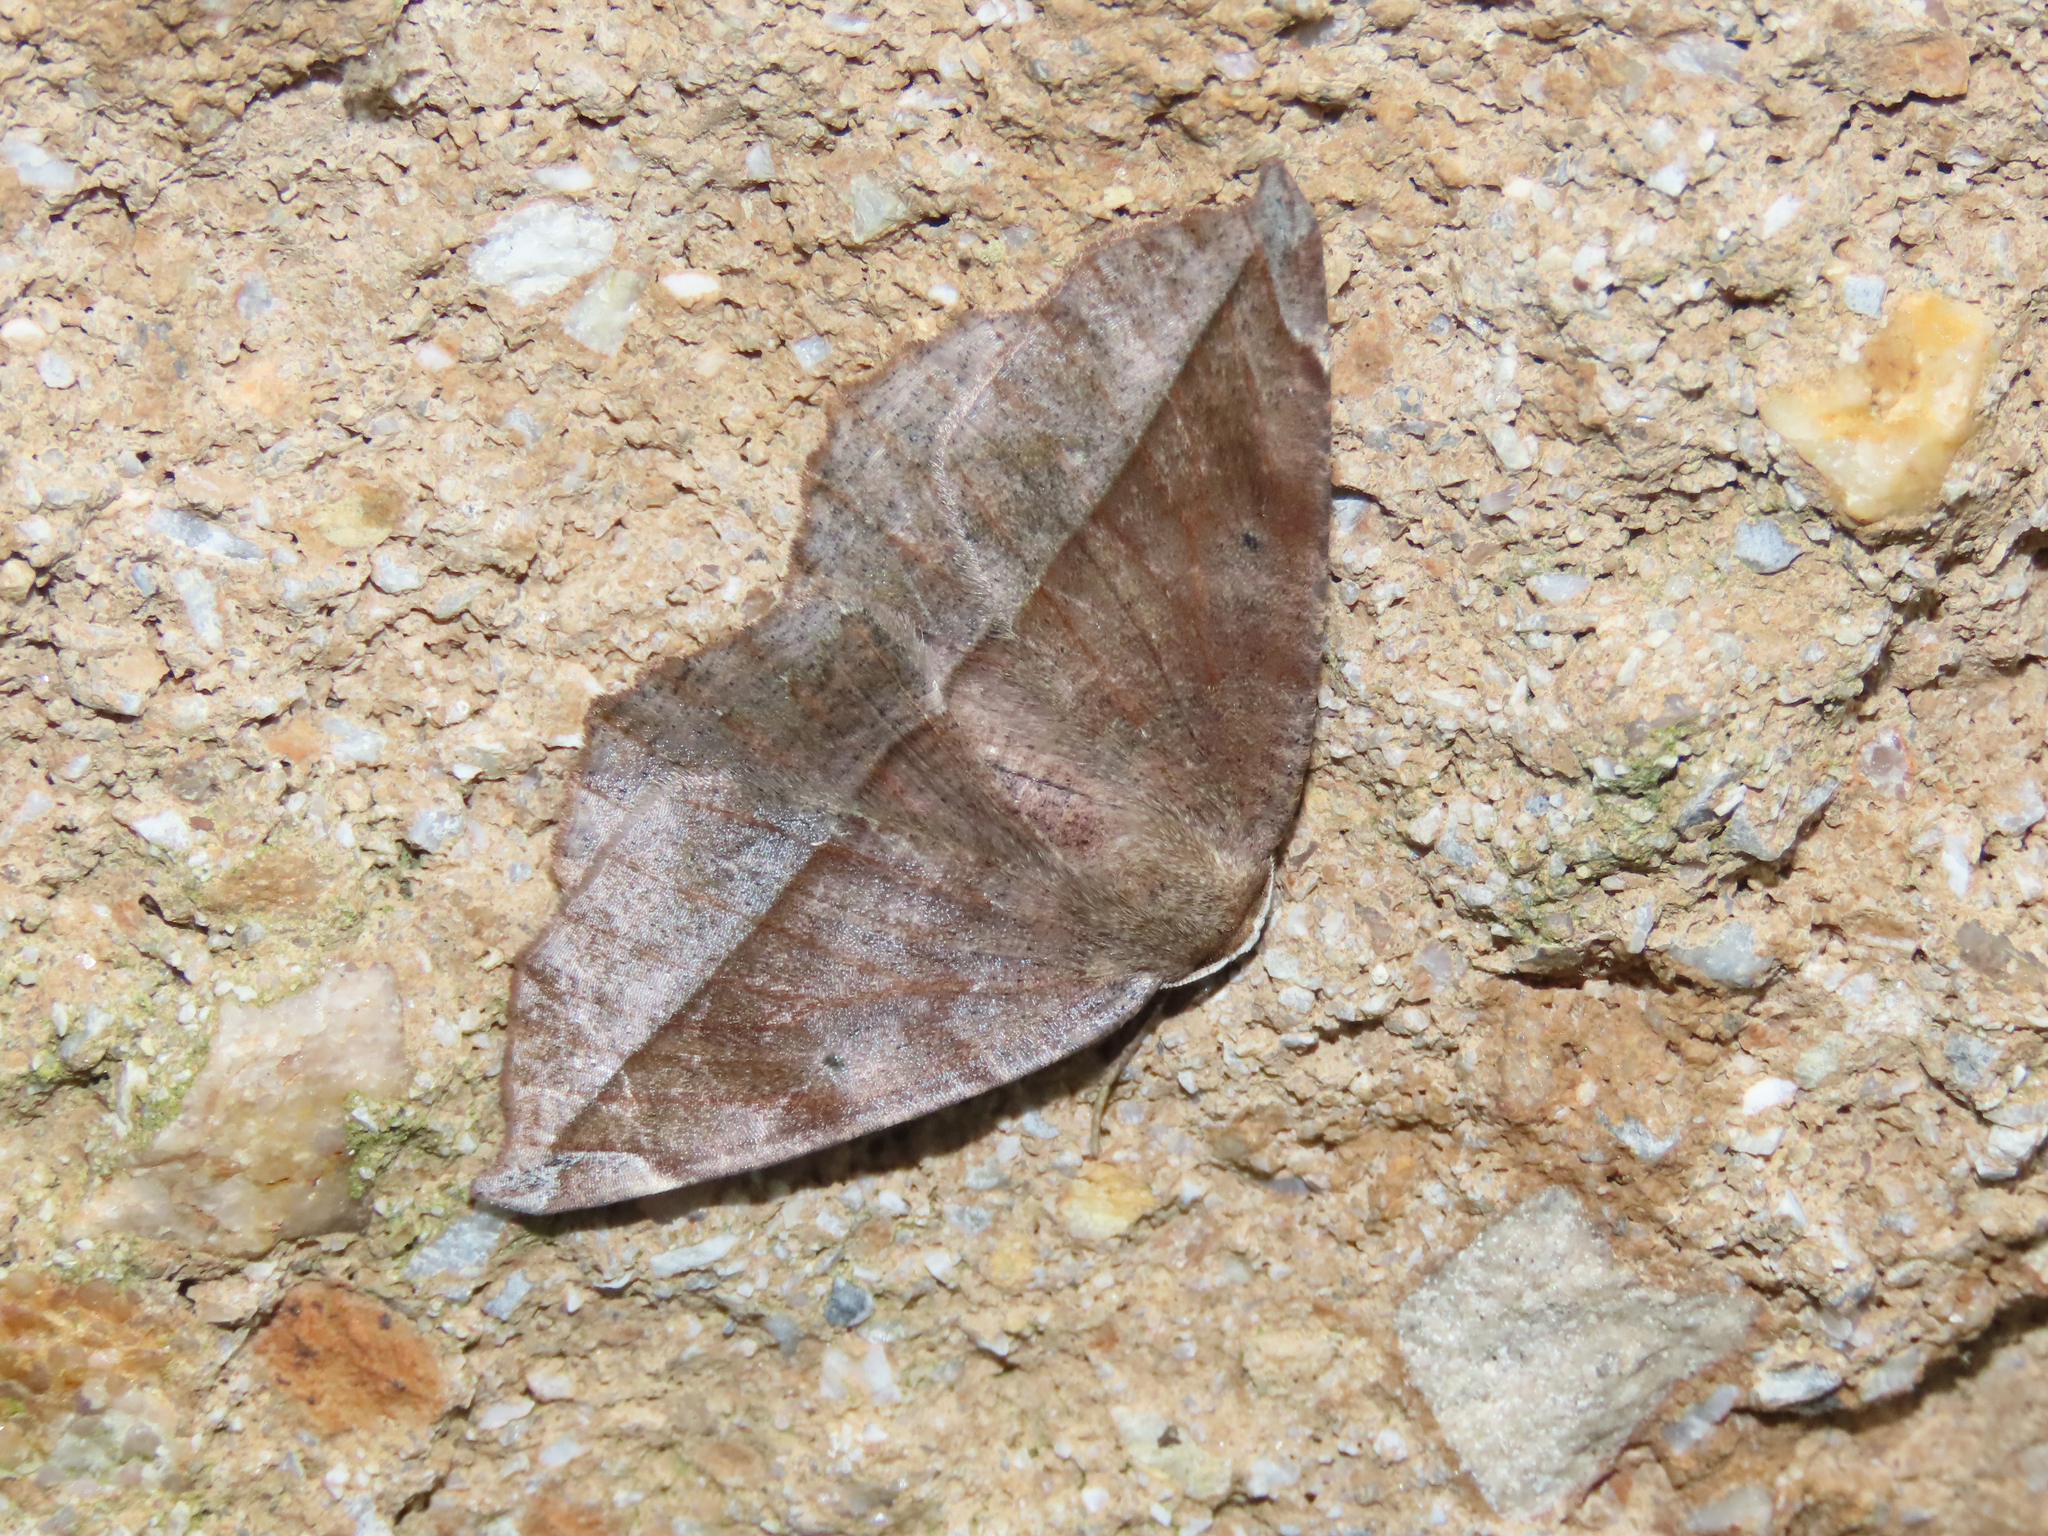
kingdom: Animalia
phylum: Arthropoda
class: Insecta
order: Lepidoptera
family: Geometridae
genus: Eutrapela
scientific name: Eutrapela clemataria
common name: Curved-toothed geometer
